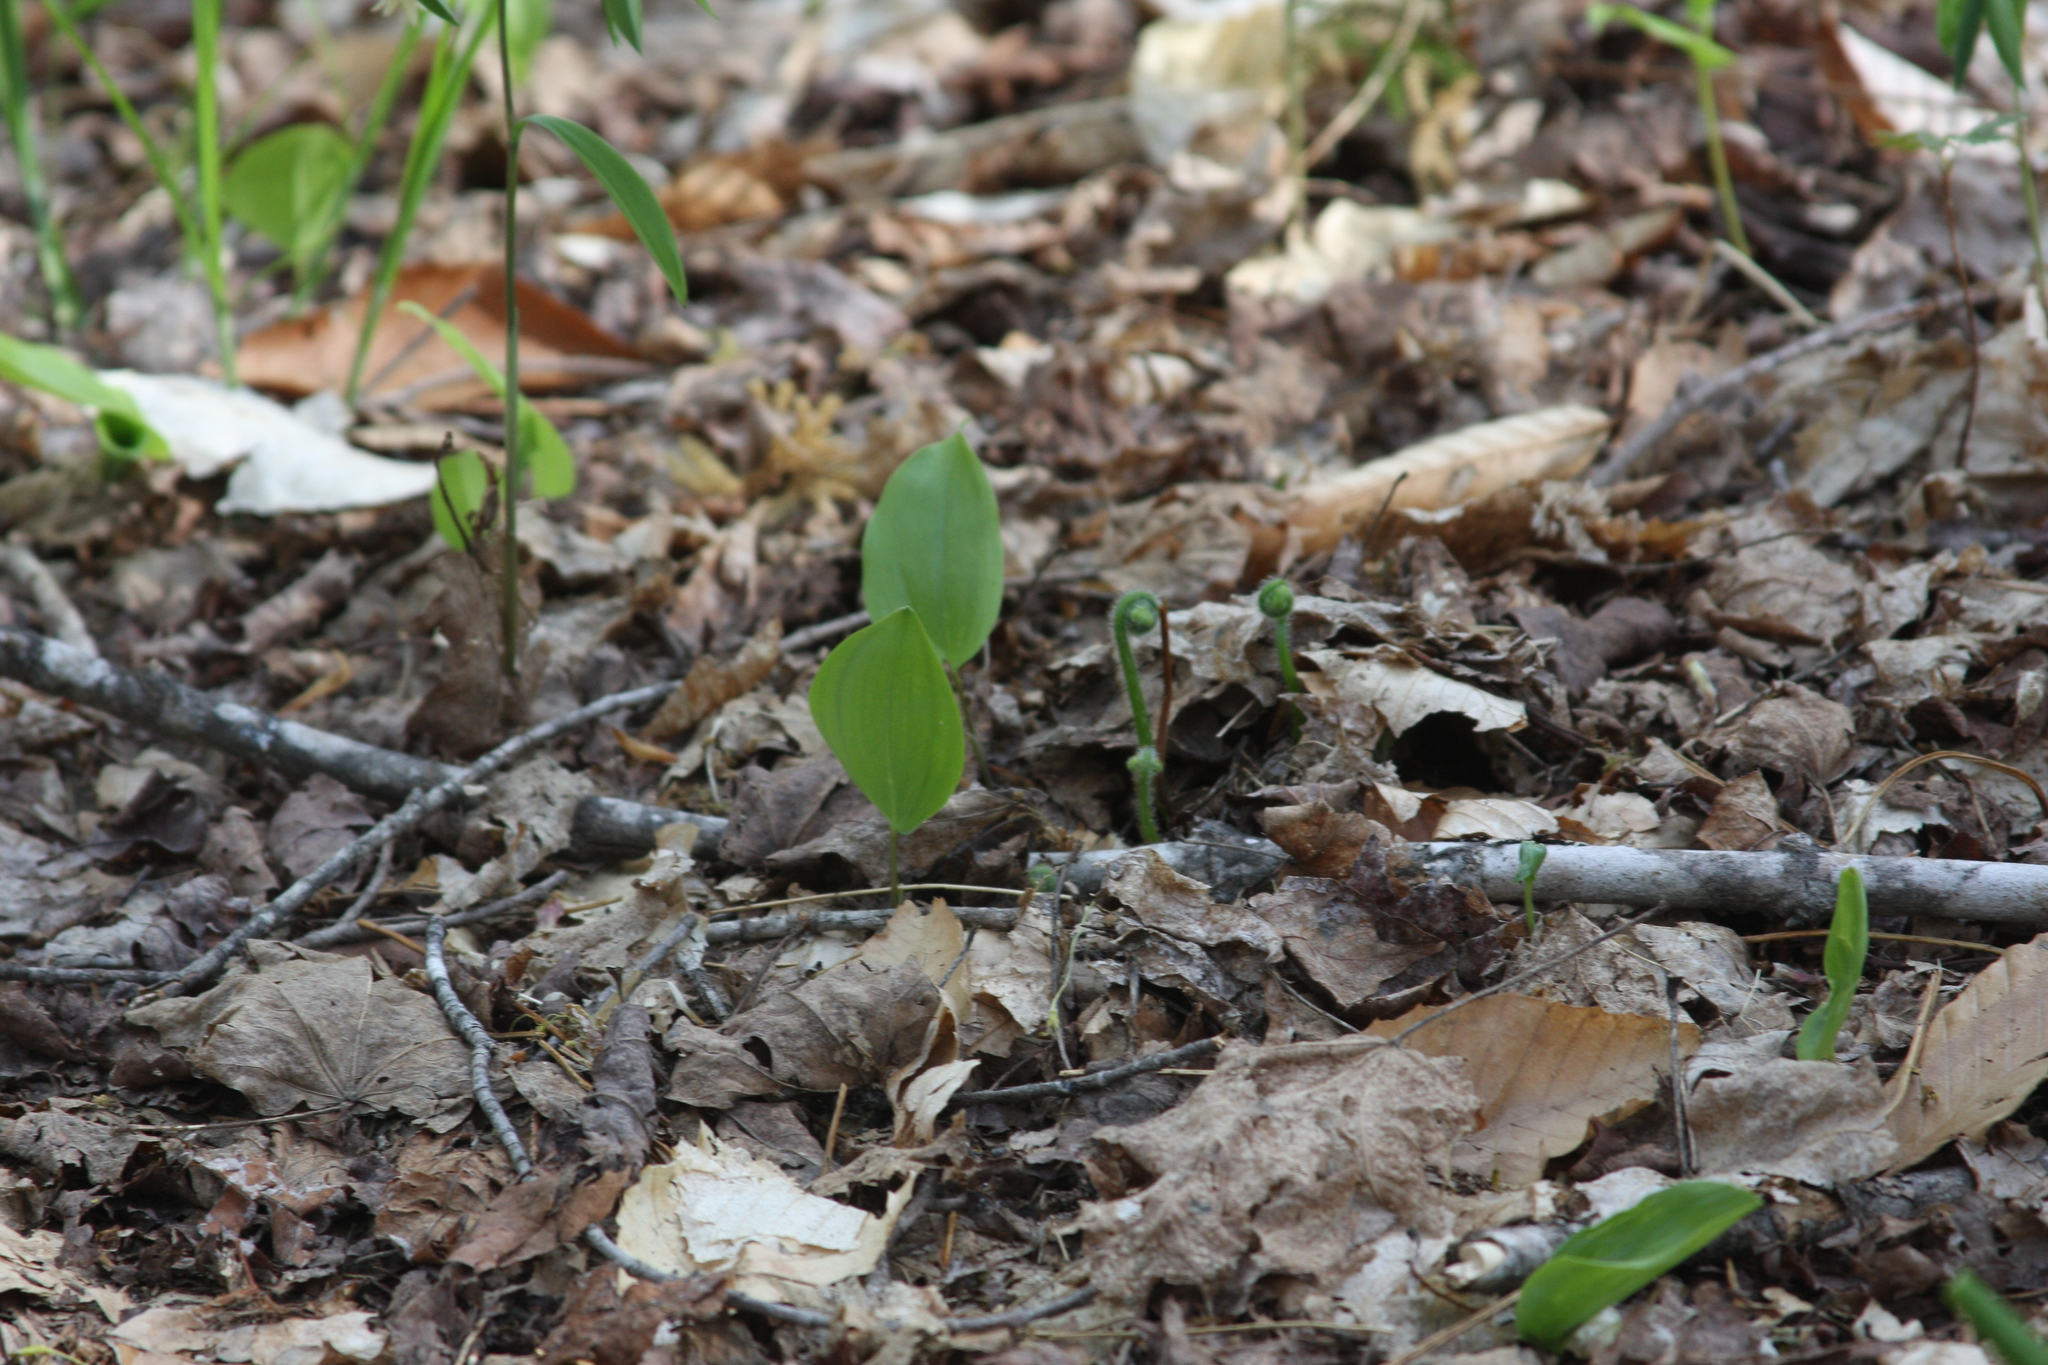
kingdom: Plantae
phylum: Tracheophyta
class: Liliopsida
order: Asparagales
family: Asparagaceae
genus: Maianthemum
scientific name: Maianthemum canadense
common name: False lily-of-the-valley
